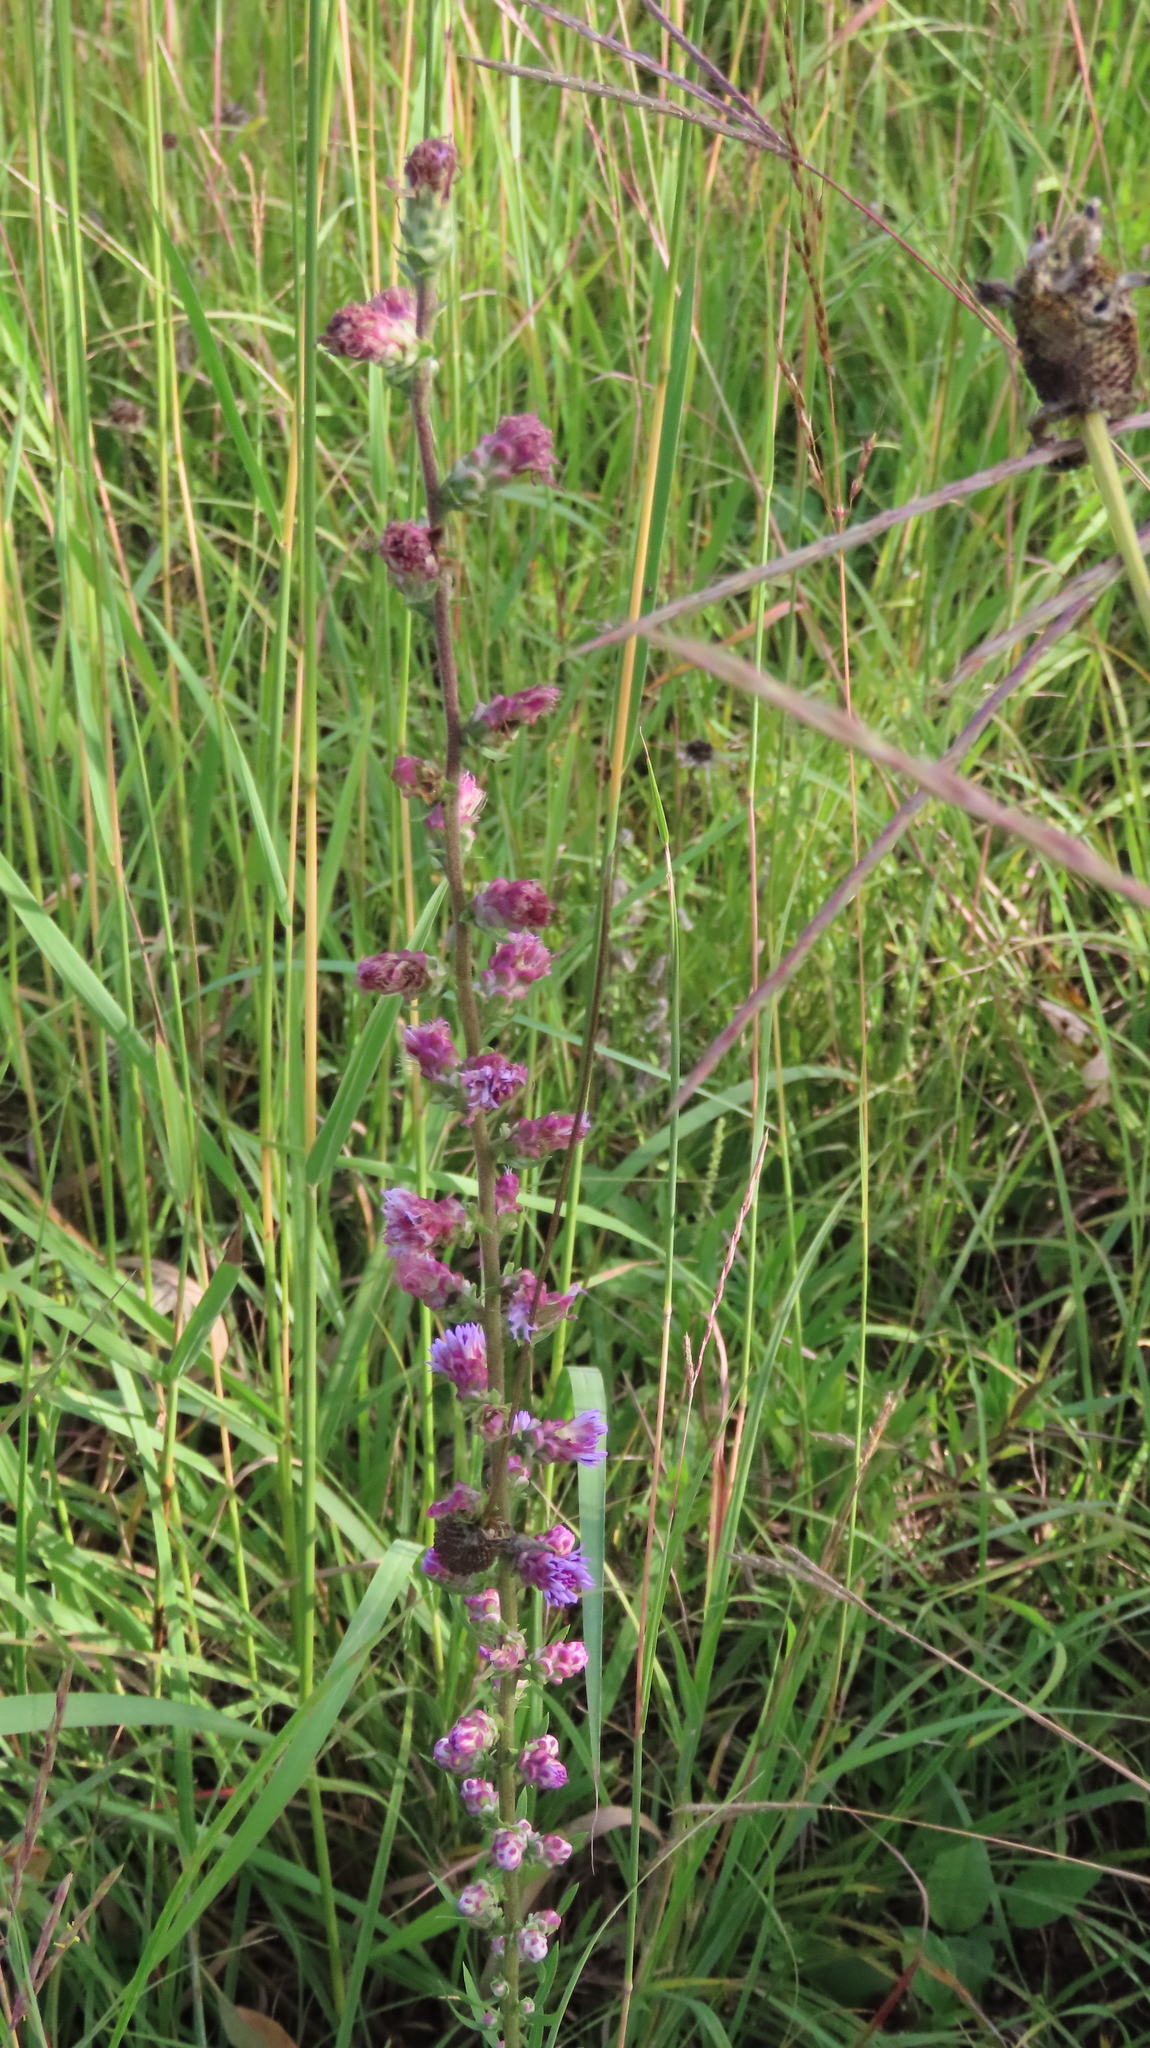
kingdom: Plantae
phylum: Tracheophyta
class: Magnoliopsida
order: Asterales
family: Asteraceae
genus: Liatris
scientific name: Liatris aspera
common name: Lacerate blazing-star
